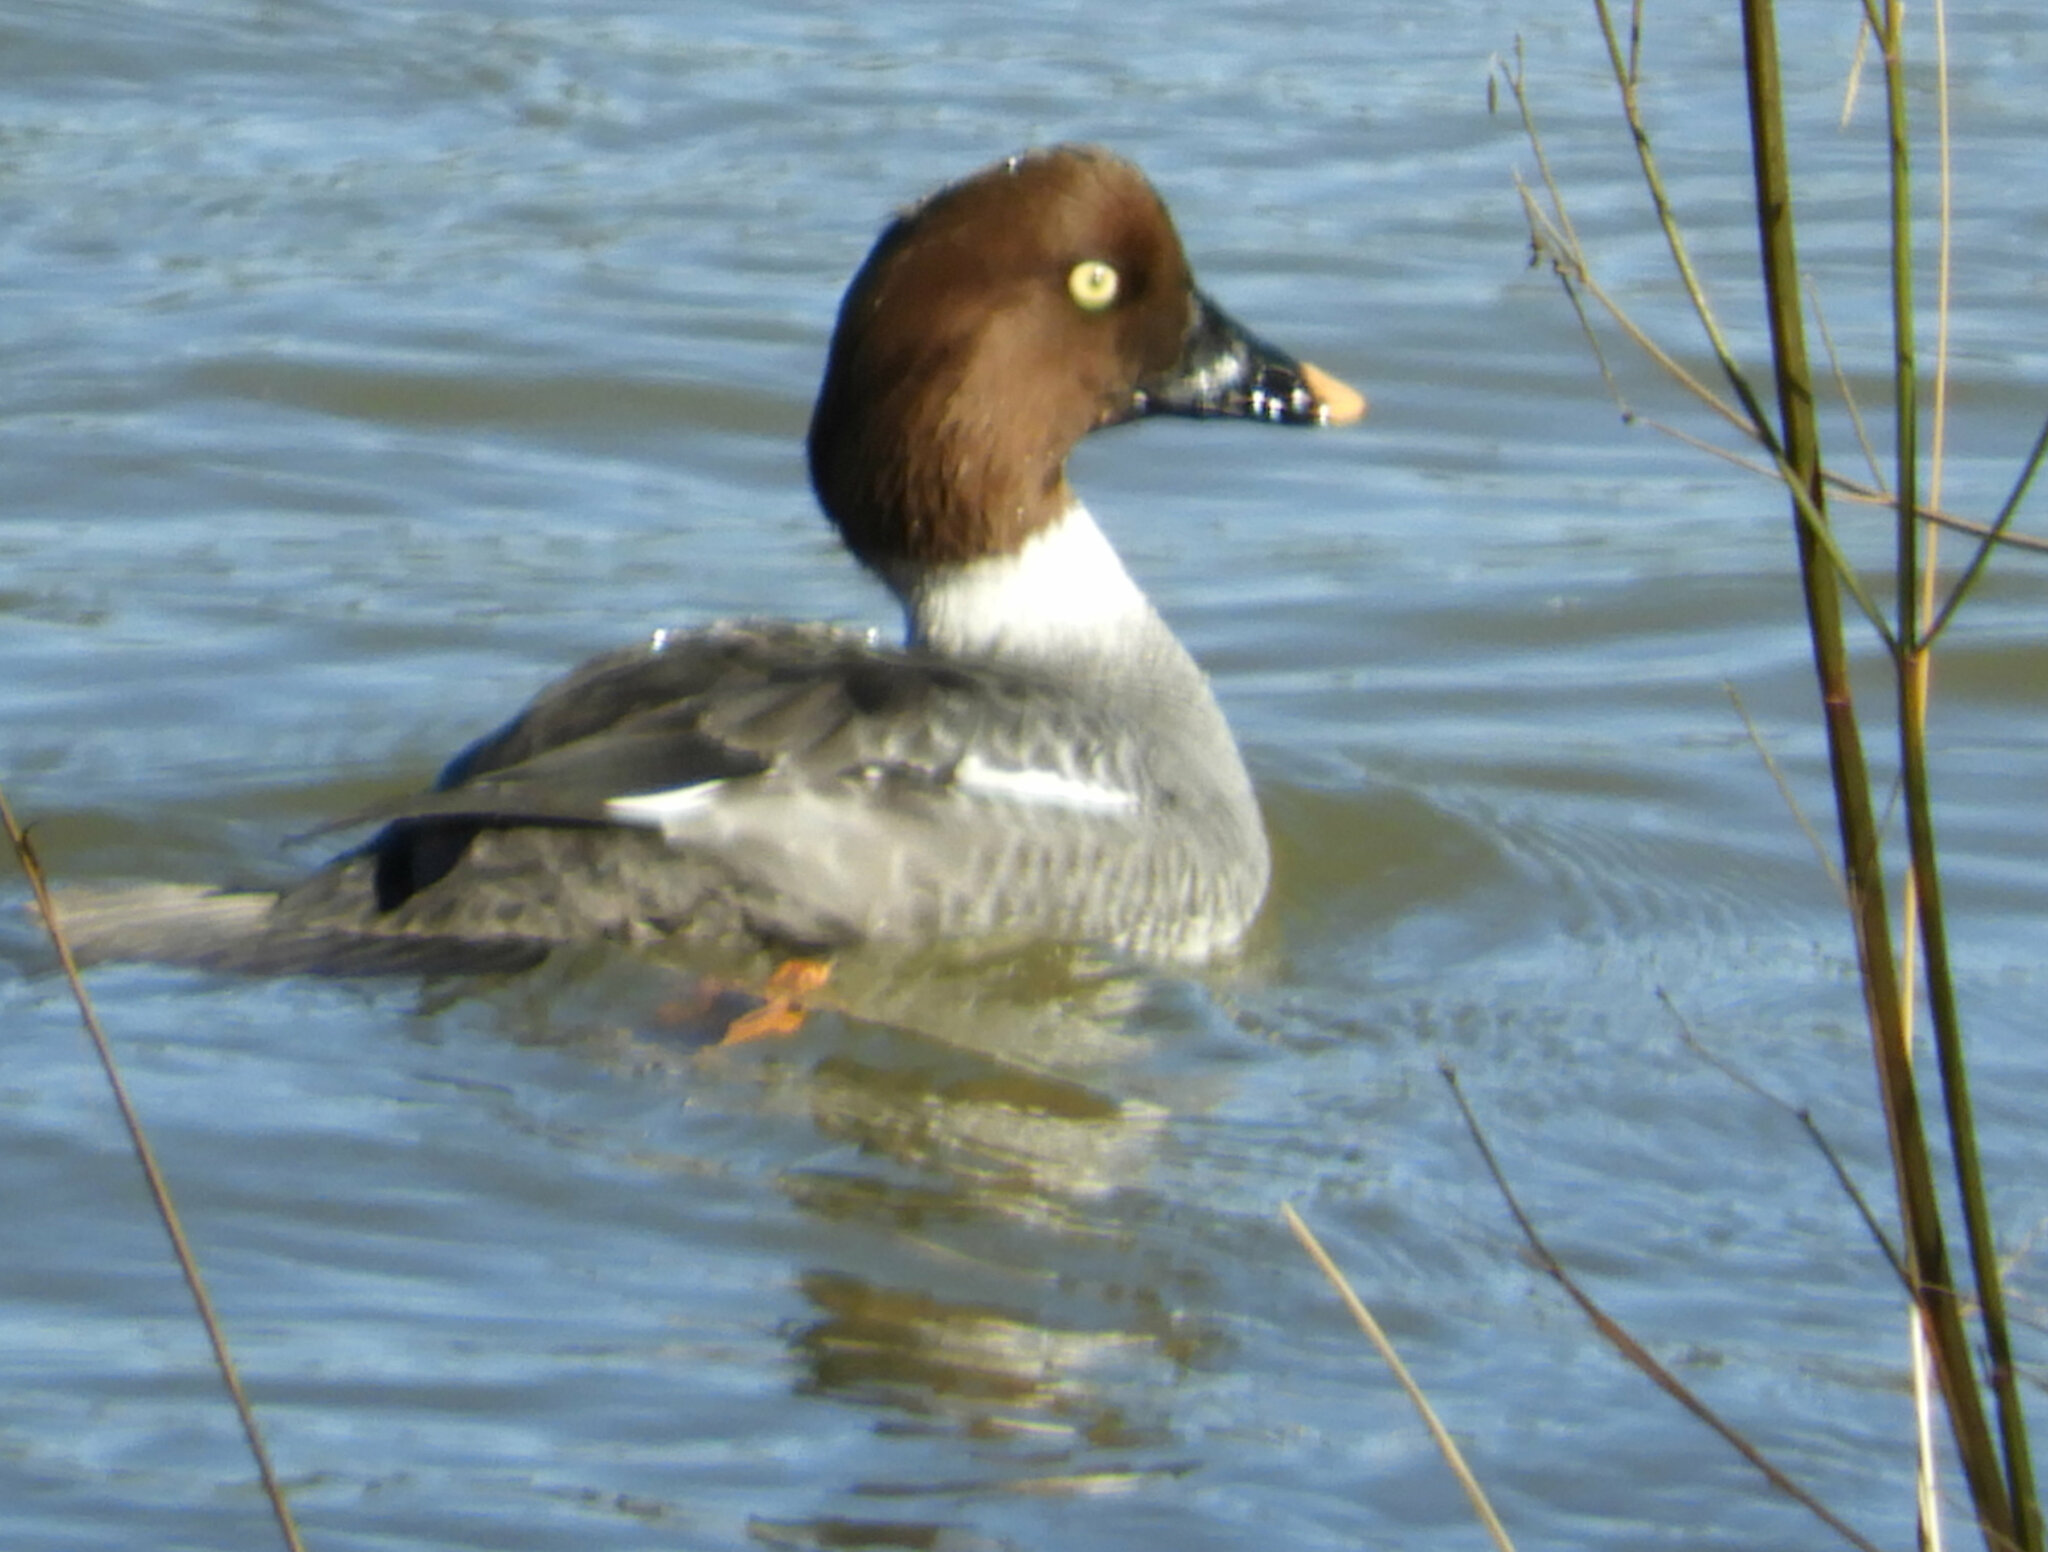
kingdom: Animalia
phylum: Chordata
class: Aves
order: Anseriformes
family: Anatidae
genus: Bucephala
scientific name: Bucephala clangula
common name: Common goldeneye
